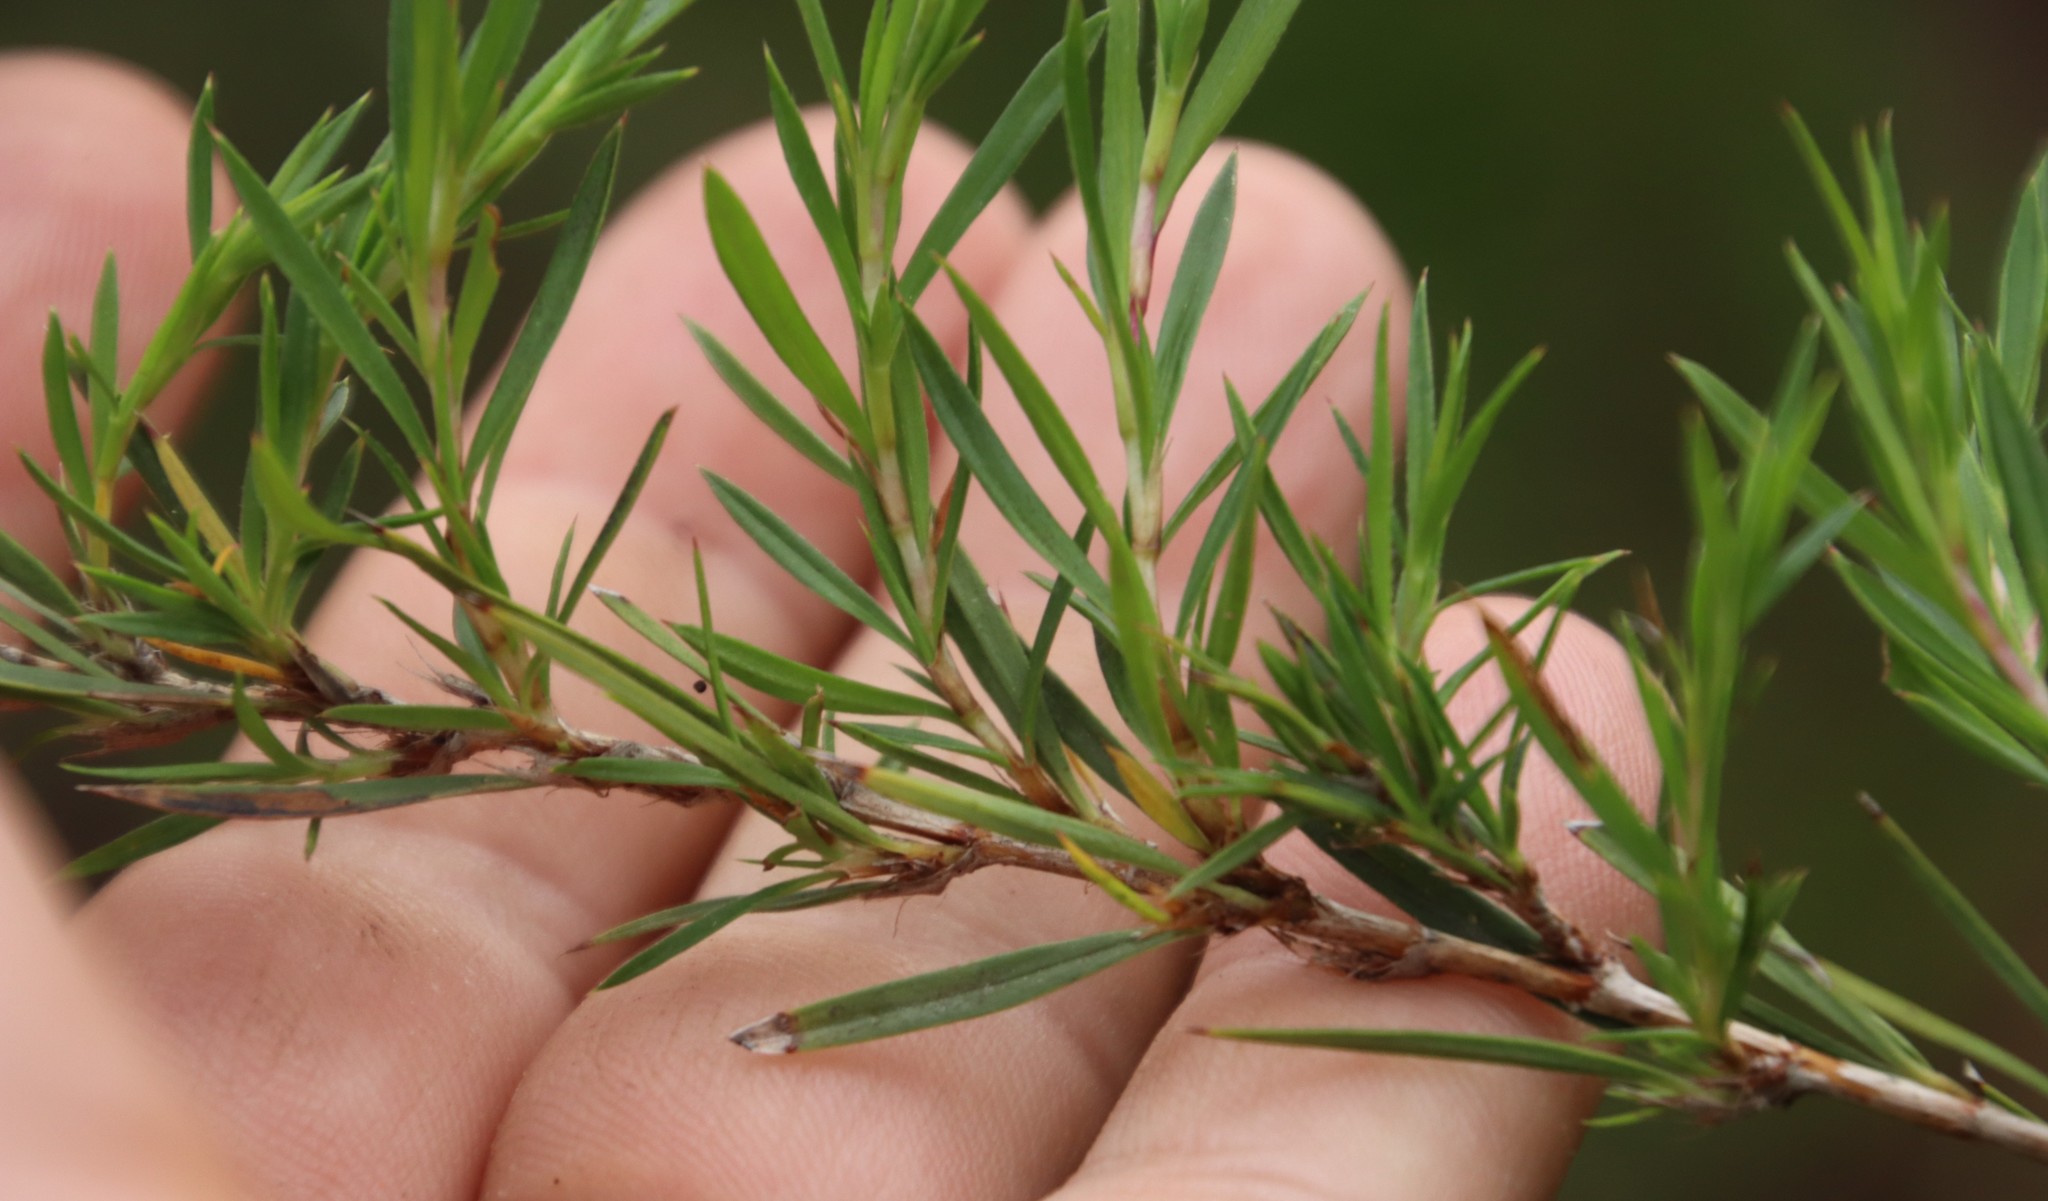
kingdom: Plantae
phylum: Tracheophyta
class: Magnoliopsida
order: Rosales
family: Rosaceae
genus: Cliffortia
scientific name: Cliffortia strobilifera
